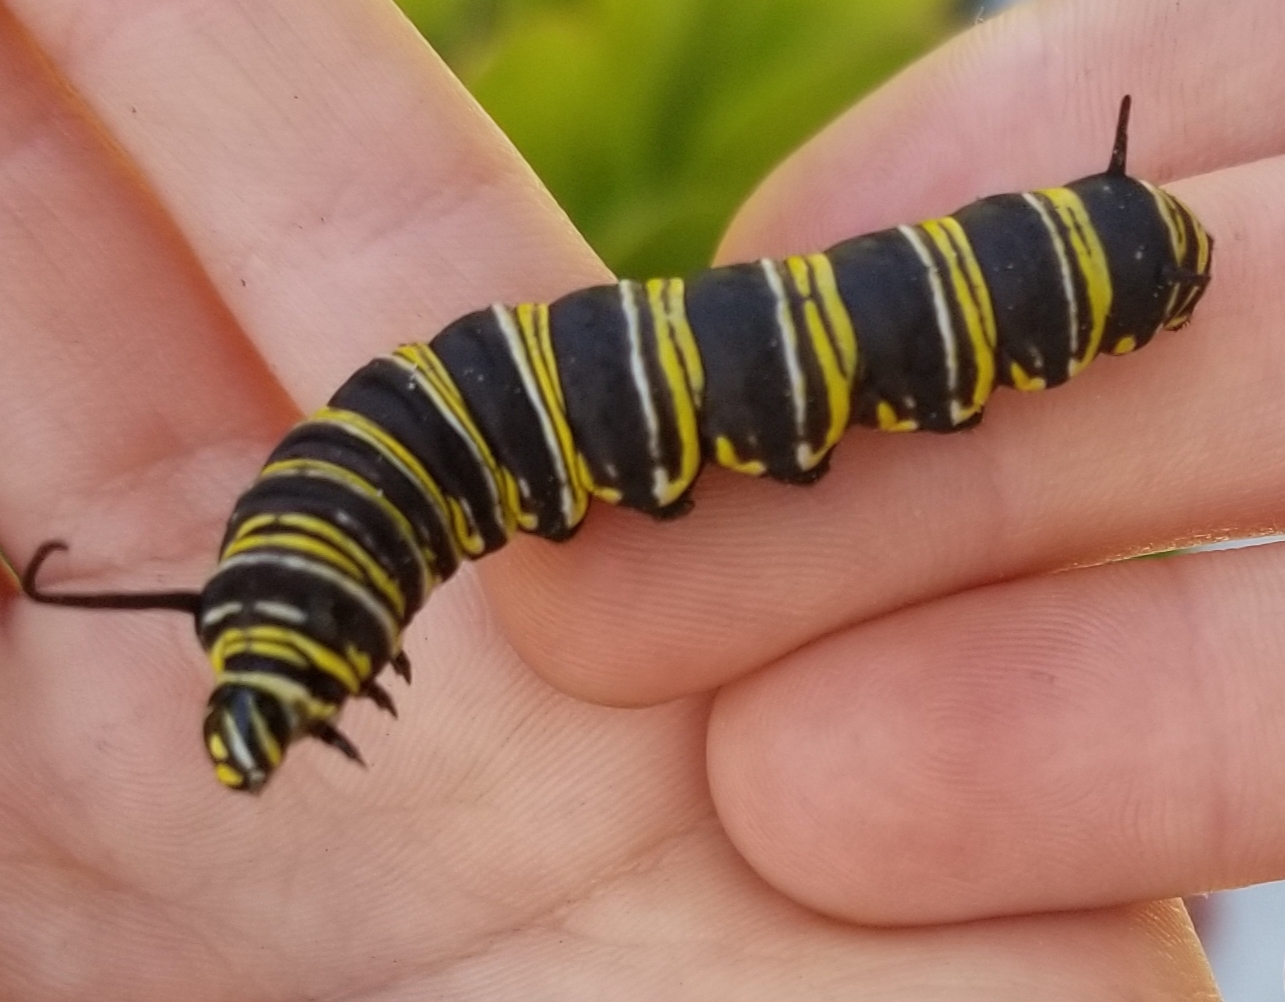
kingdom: Animalia
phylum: Arthropoda
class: Insecta
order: Lepidoptera
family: Nymphalidae
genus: Danaus
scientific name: Danaus plexippus
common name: Monarch
